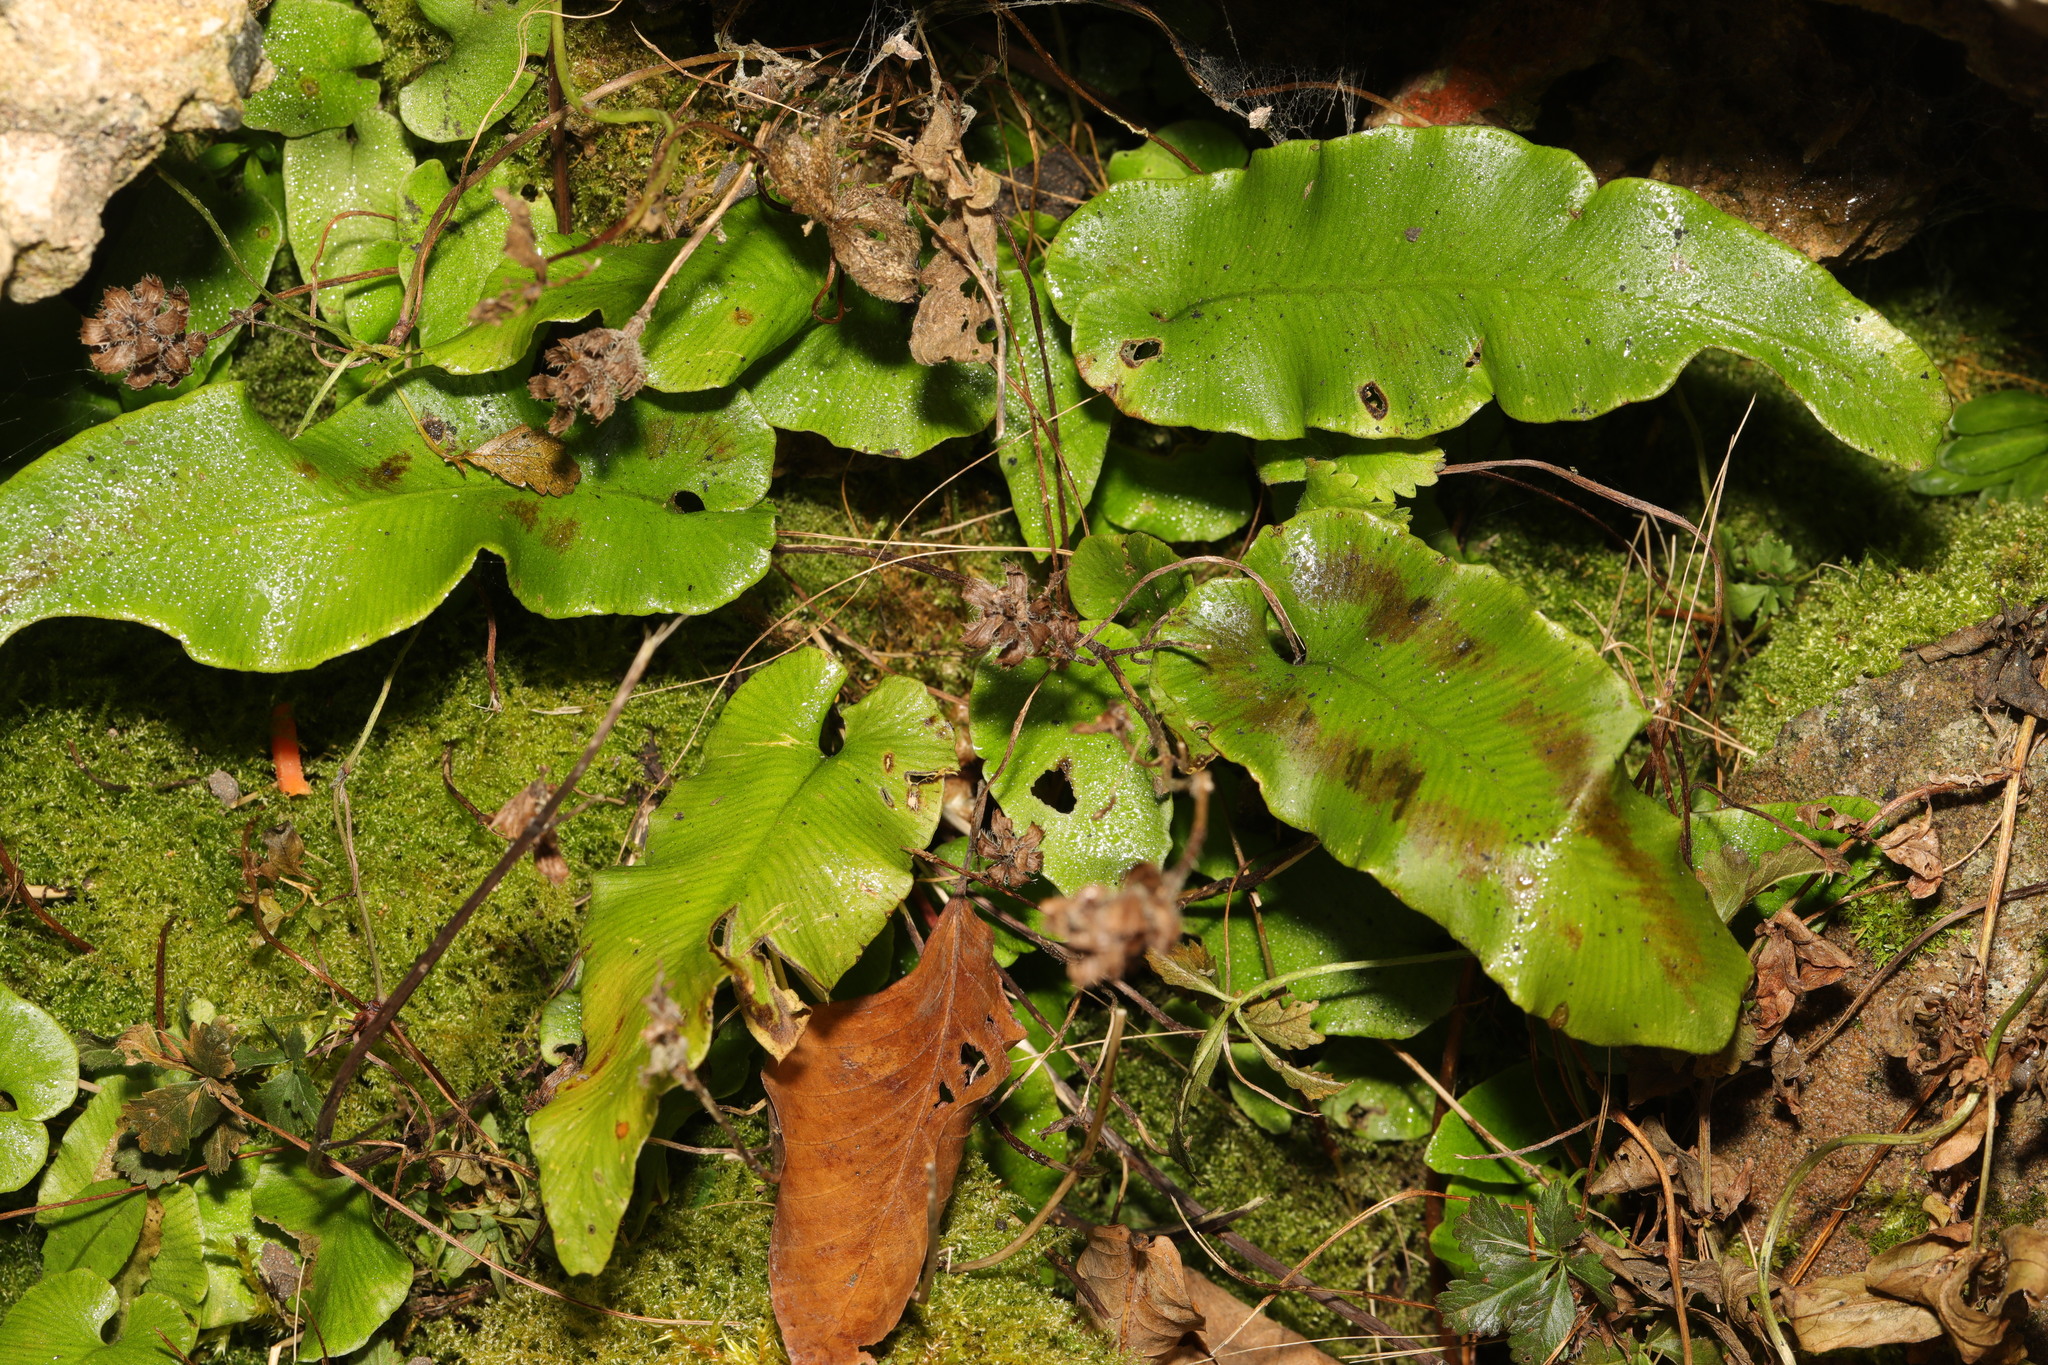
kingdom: Plantae
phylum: Tracheophyta
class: Polypodiopsida
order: Polypodiales
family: Aspleniaceae
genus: Asplenium
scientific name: Asplenium scolopendrium
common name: Hart's-tongue fern
